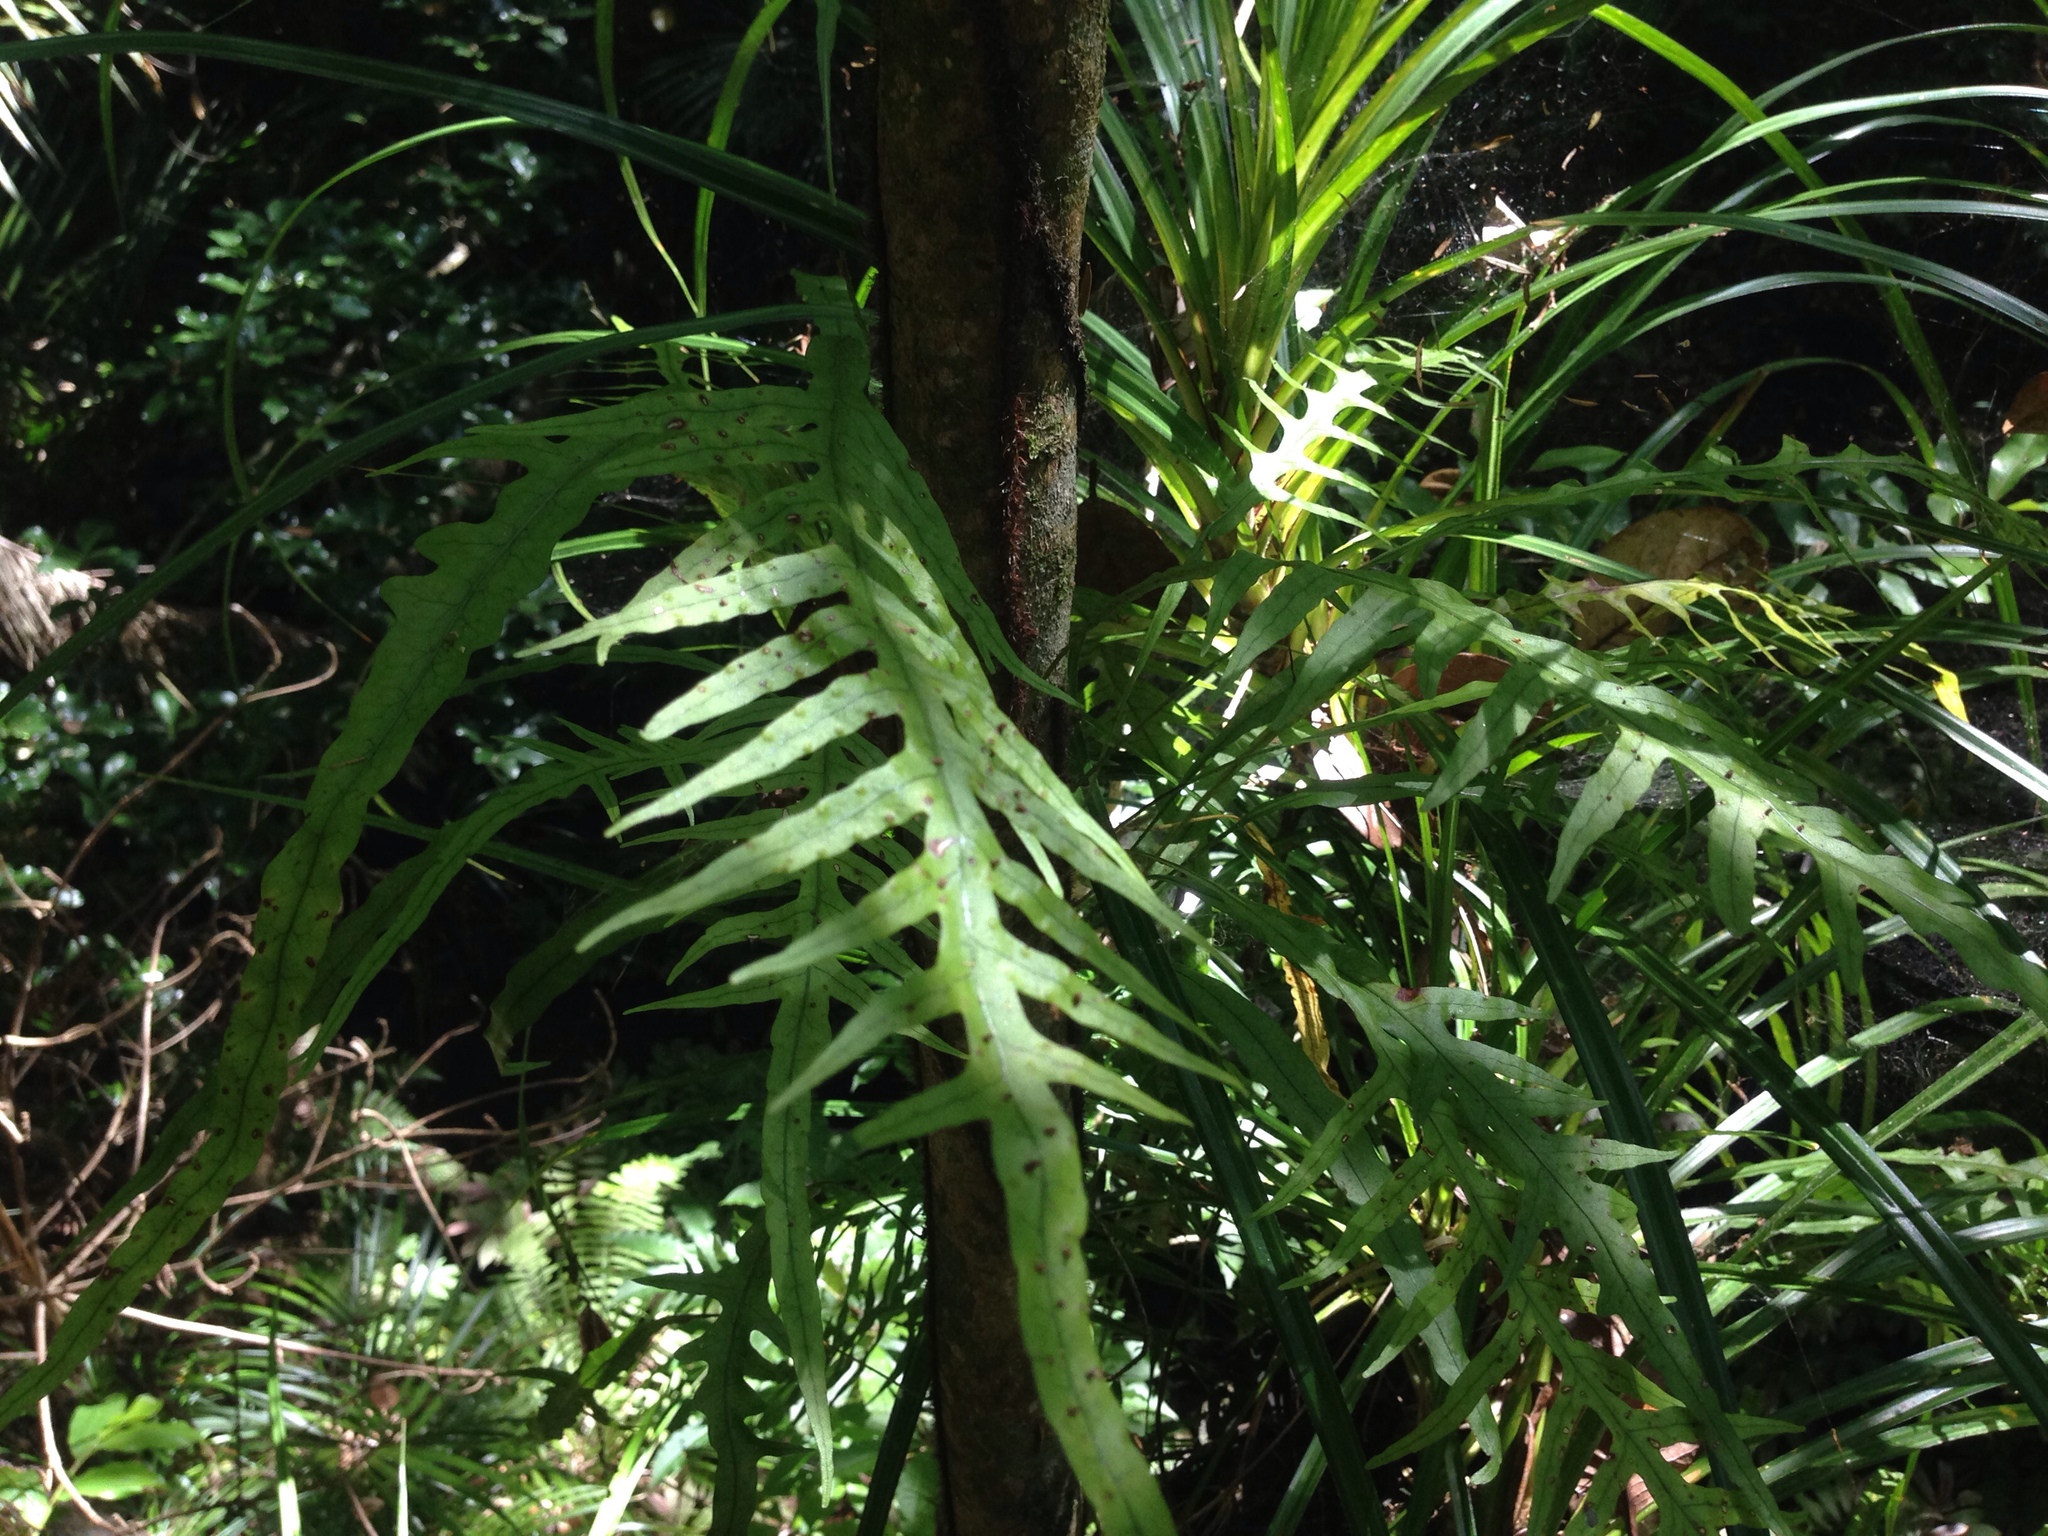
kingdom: Plantae
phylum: Tracheophyta
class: Polypodiopsida
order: Polypodiales
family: Polypodiaceae
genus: Lecanopteris
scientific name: Lecanopteris scandens
